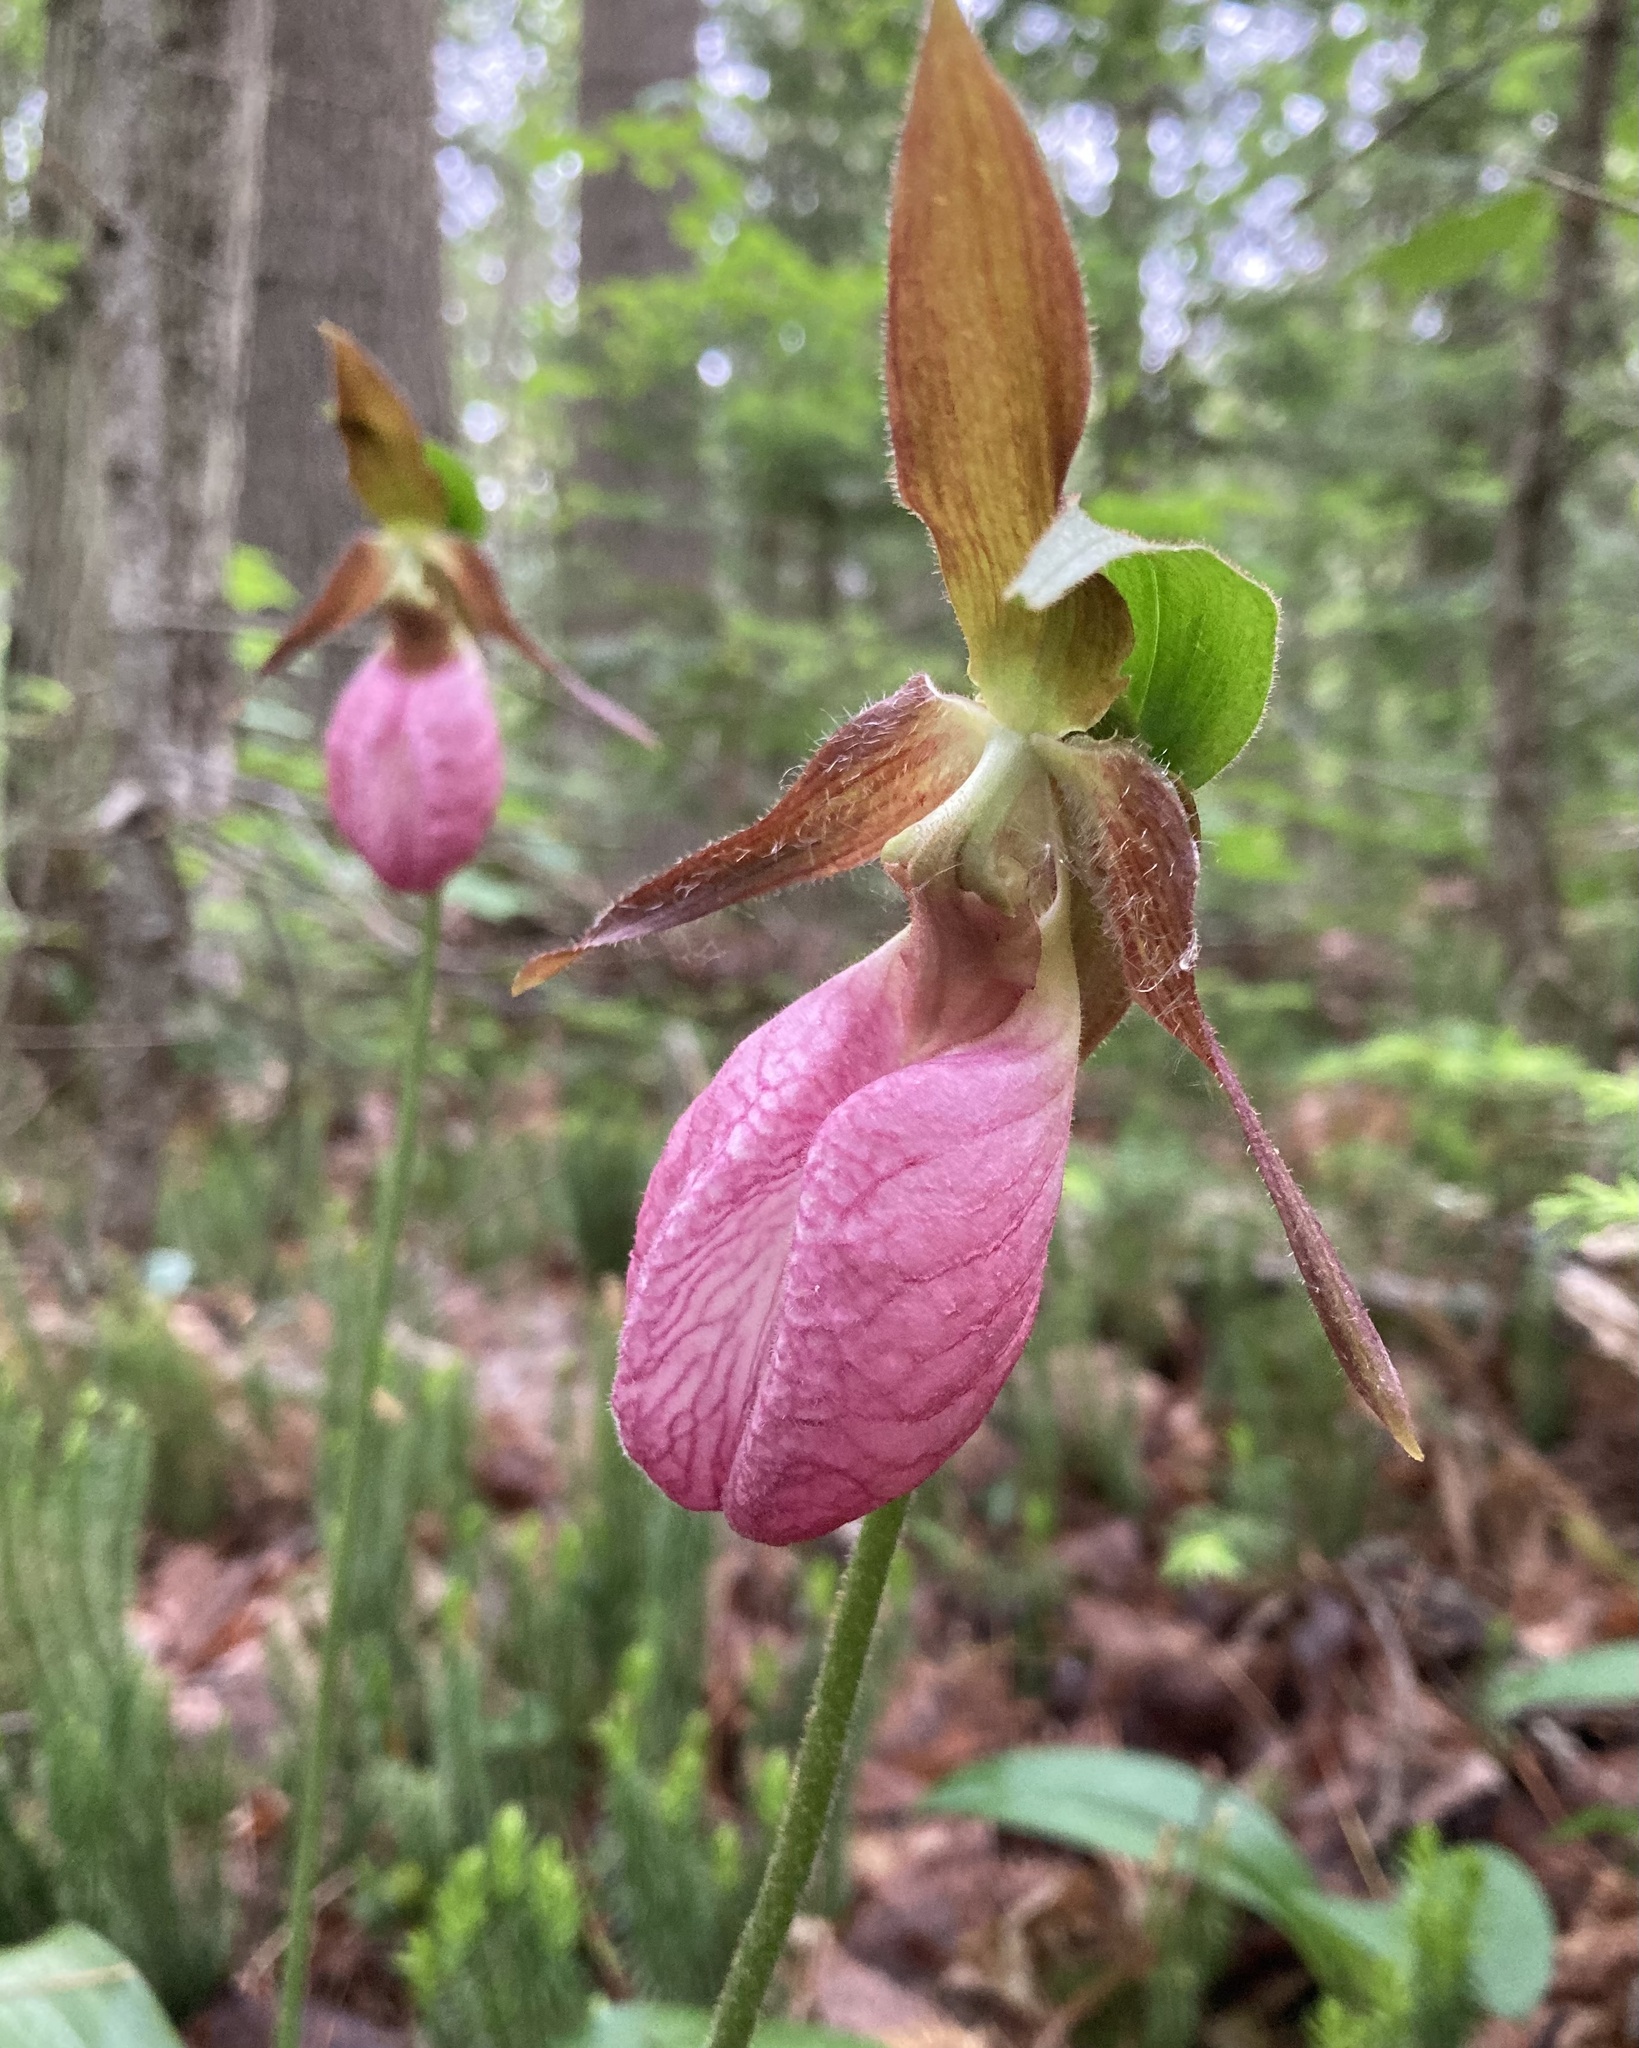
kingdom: Plantae
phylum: Tracheophyta
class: Liliopsida
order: Asparagales
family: Orchidaceae
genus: Cypripedium
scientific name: Cypripedium acaule
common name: Pink lady's-slipper
